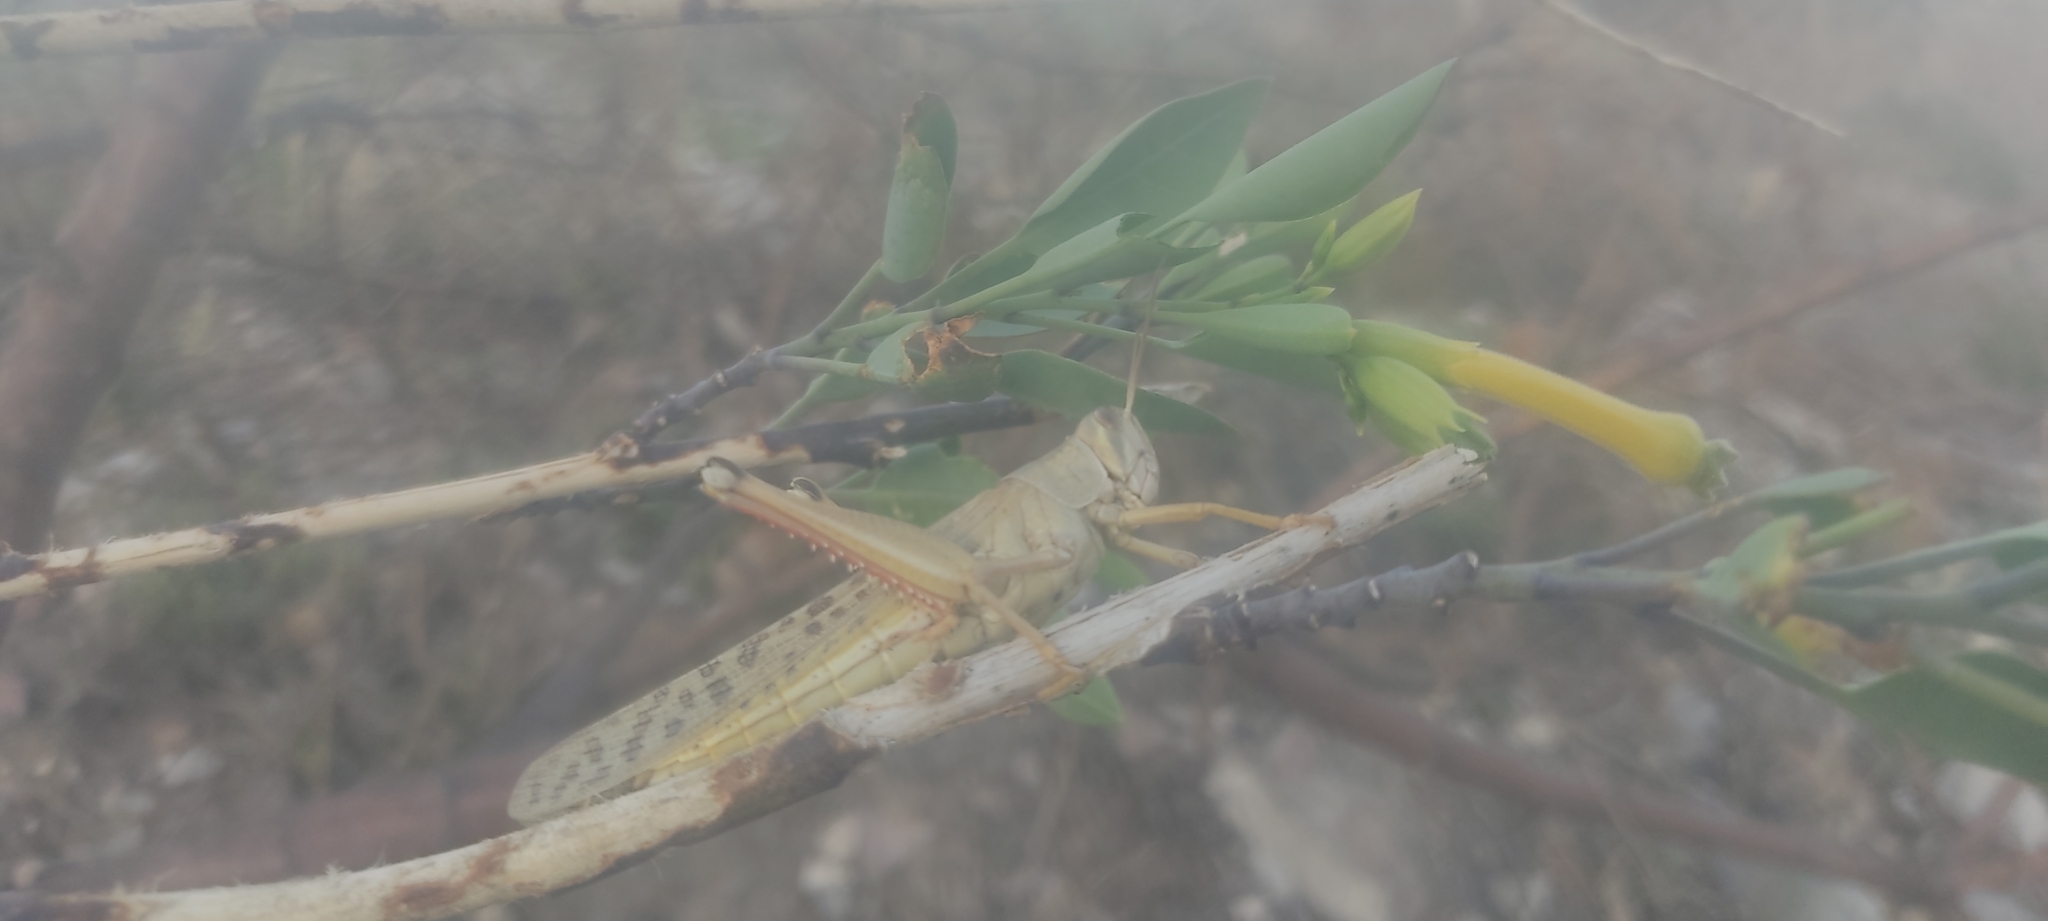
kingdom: Animalia
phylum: Arthropoda
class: Insecta
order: Orthoptera
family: Acrididae
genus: Schistocerca
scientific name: Schistocerca piceifrons
